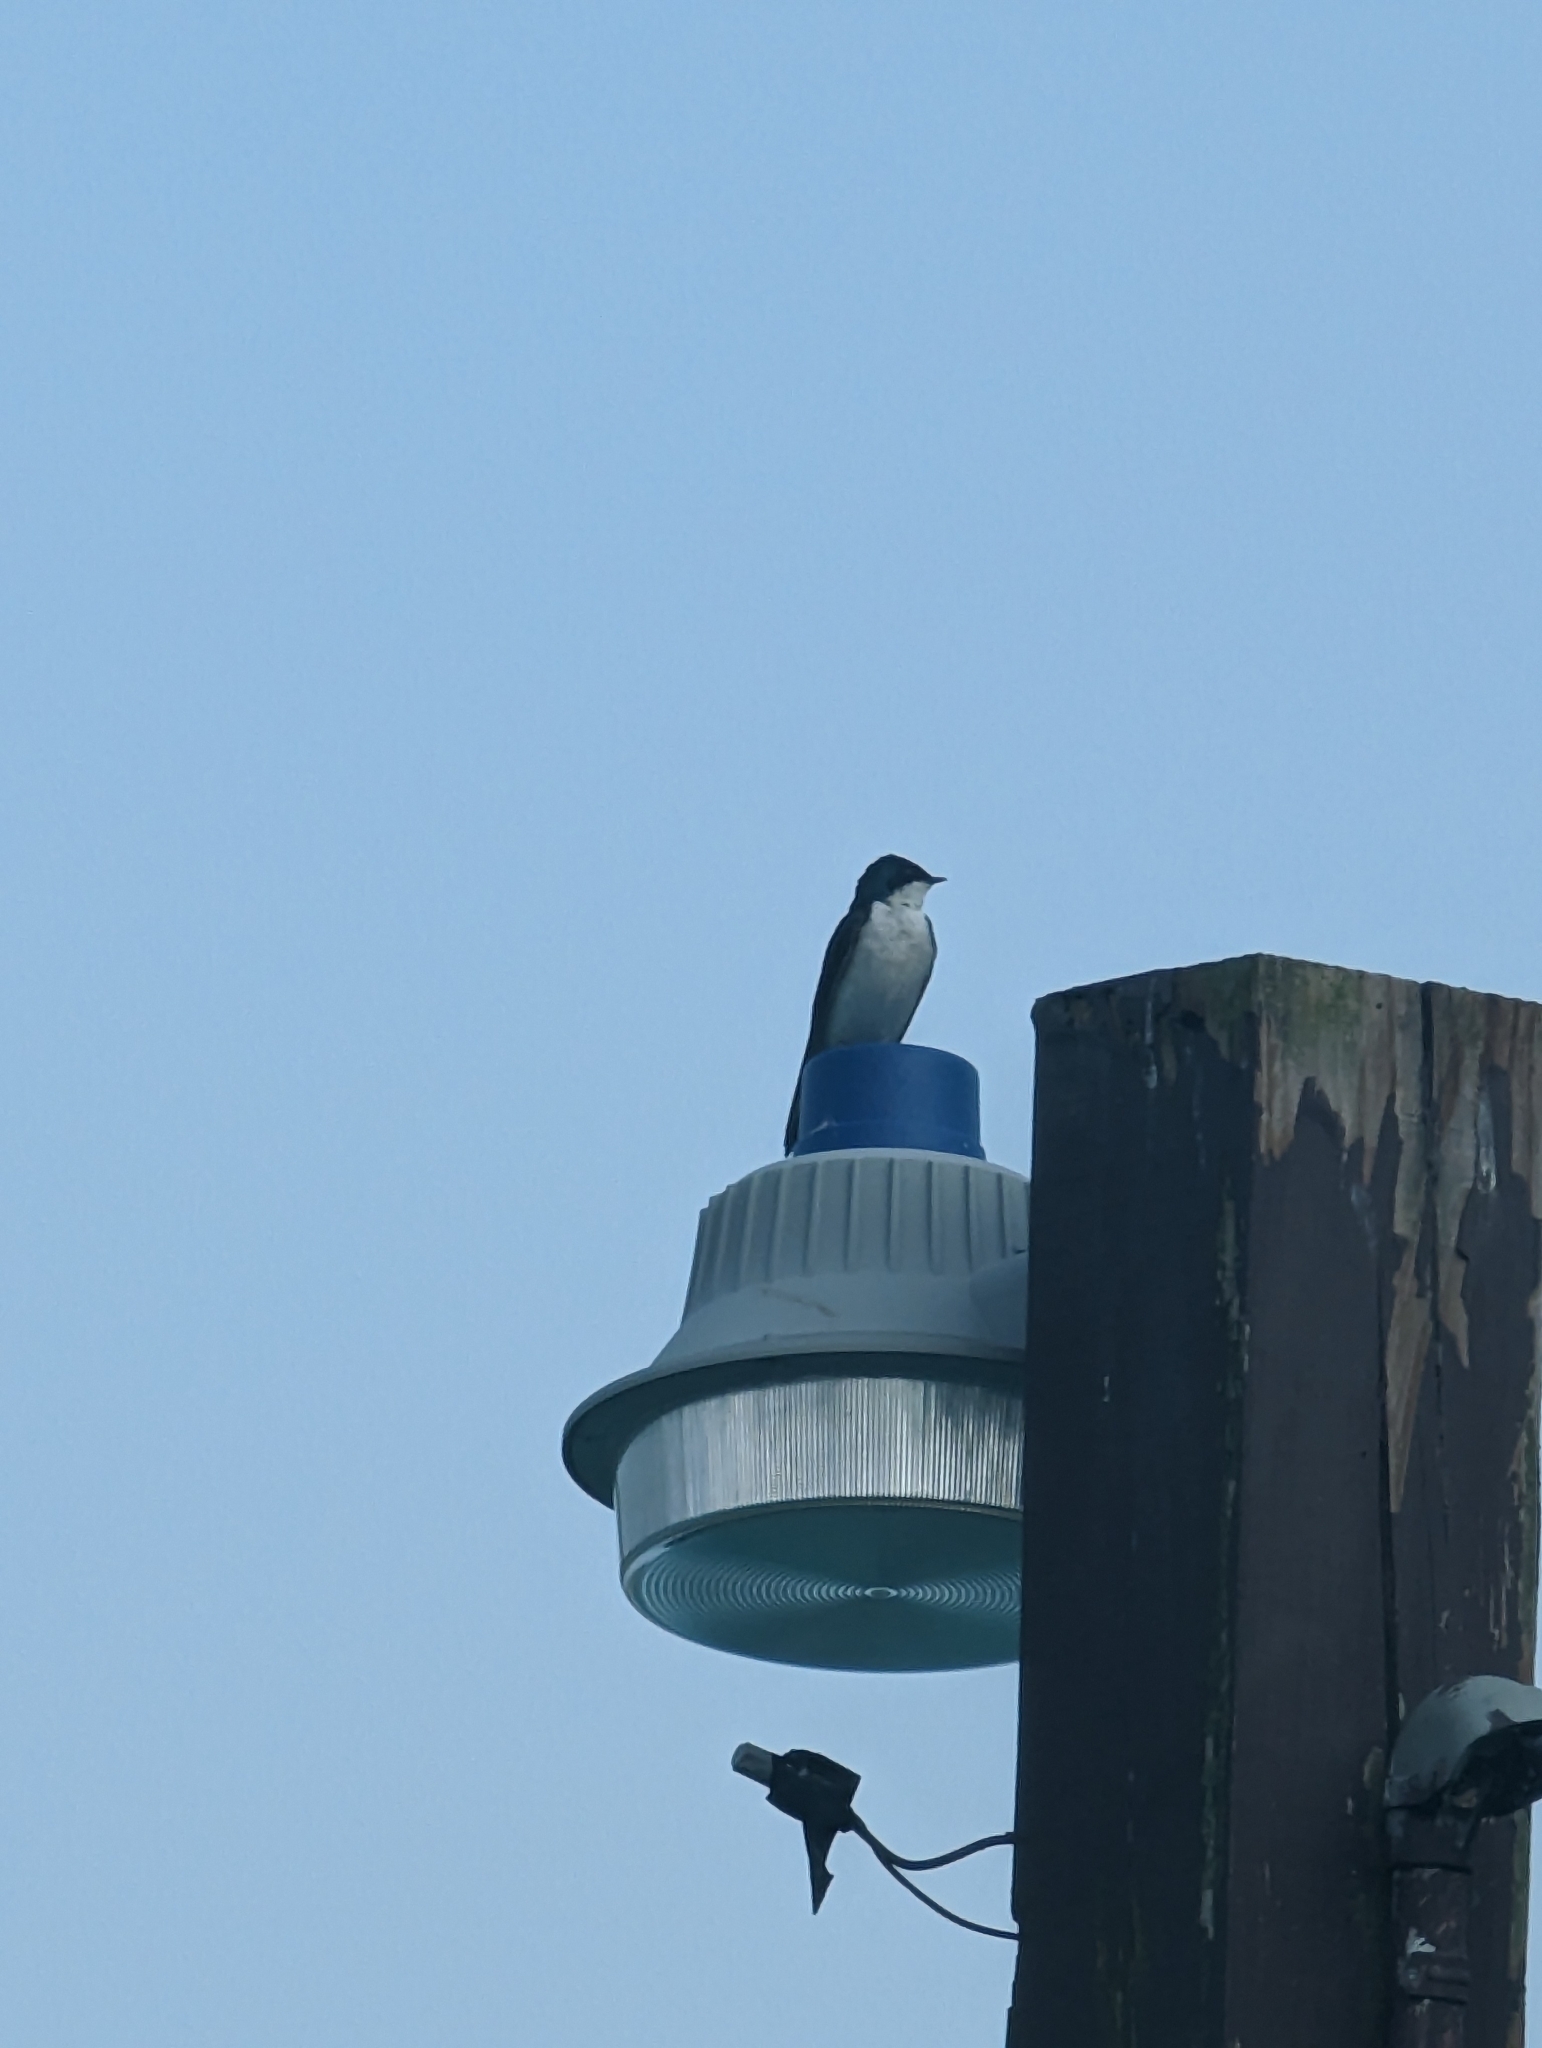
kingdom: Animalia
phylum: Chordata
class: Aves
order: Passeriformes
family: Hirundinidae
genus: Tachycineta
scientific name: Tachycineta bicolor
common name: Tree swallow
